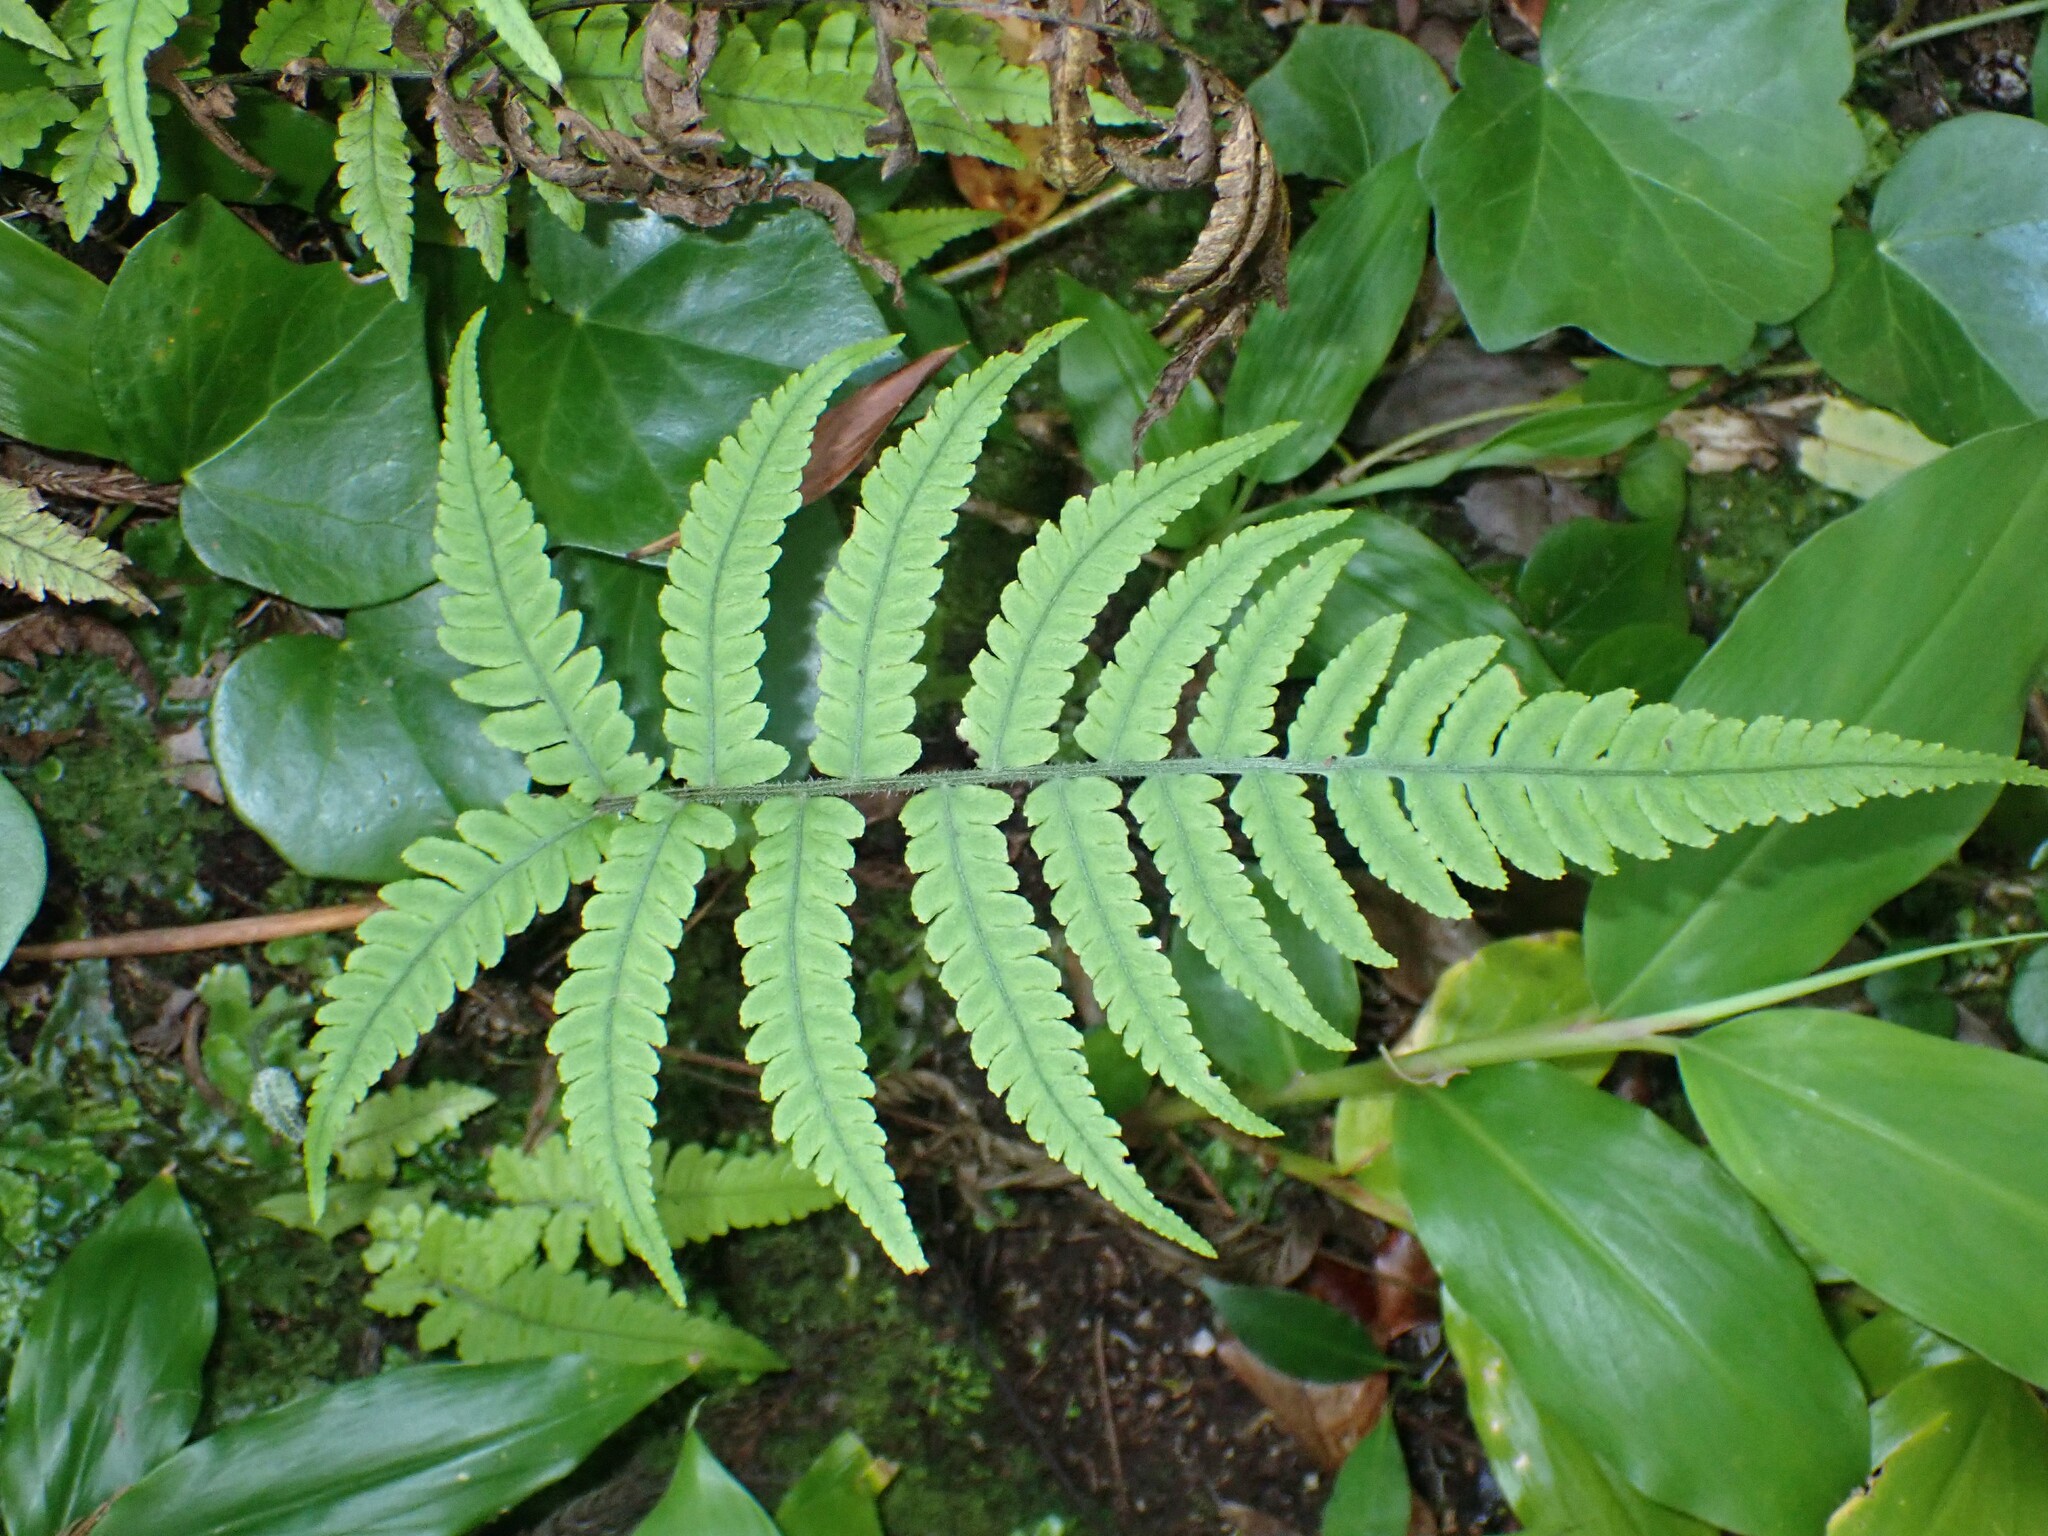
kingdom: Plantae
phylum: Tracheophyta
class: Polypodiopsida
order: Polypodiales
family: Athyriaceae
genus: Deparia
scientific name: Deparia petersenii
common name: Japanese false spleenwort
